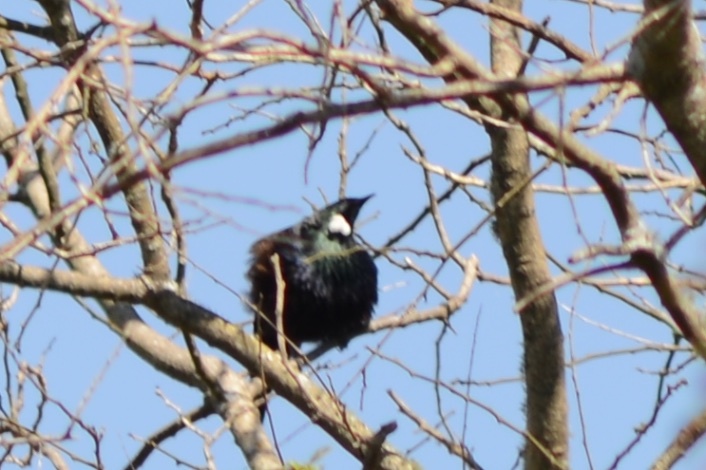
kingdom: Animalia
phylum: Chordata
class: Aves
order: Passeriformes
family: Meliphagidae
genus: Prosthemadera
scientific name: Prosthemadera novaeseelandiae
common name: Tui
